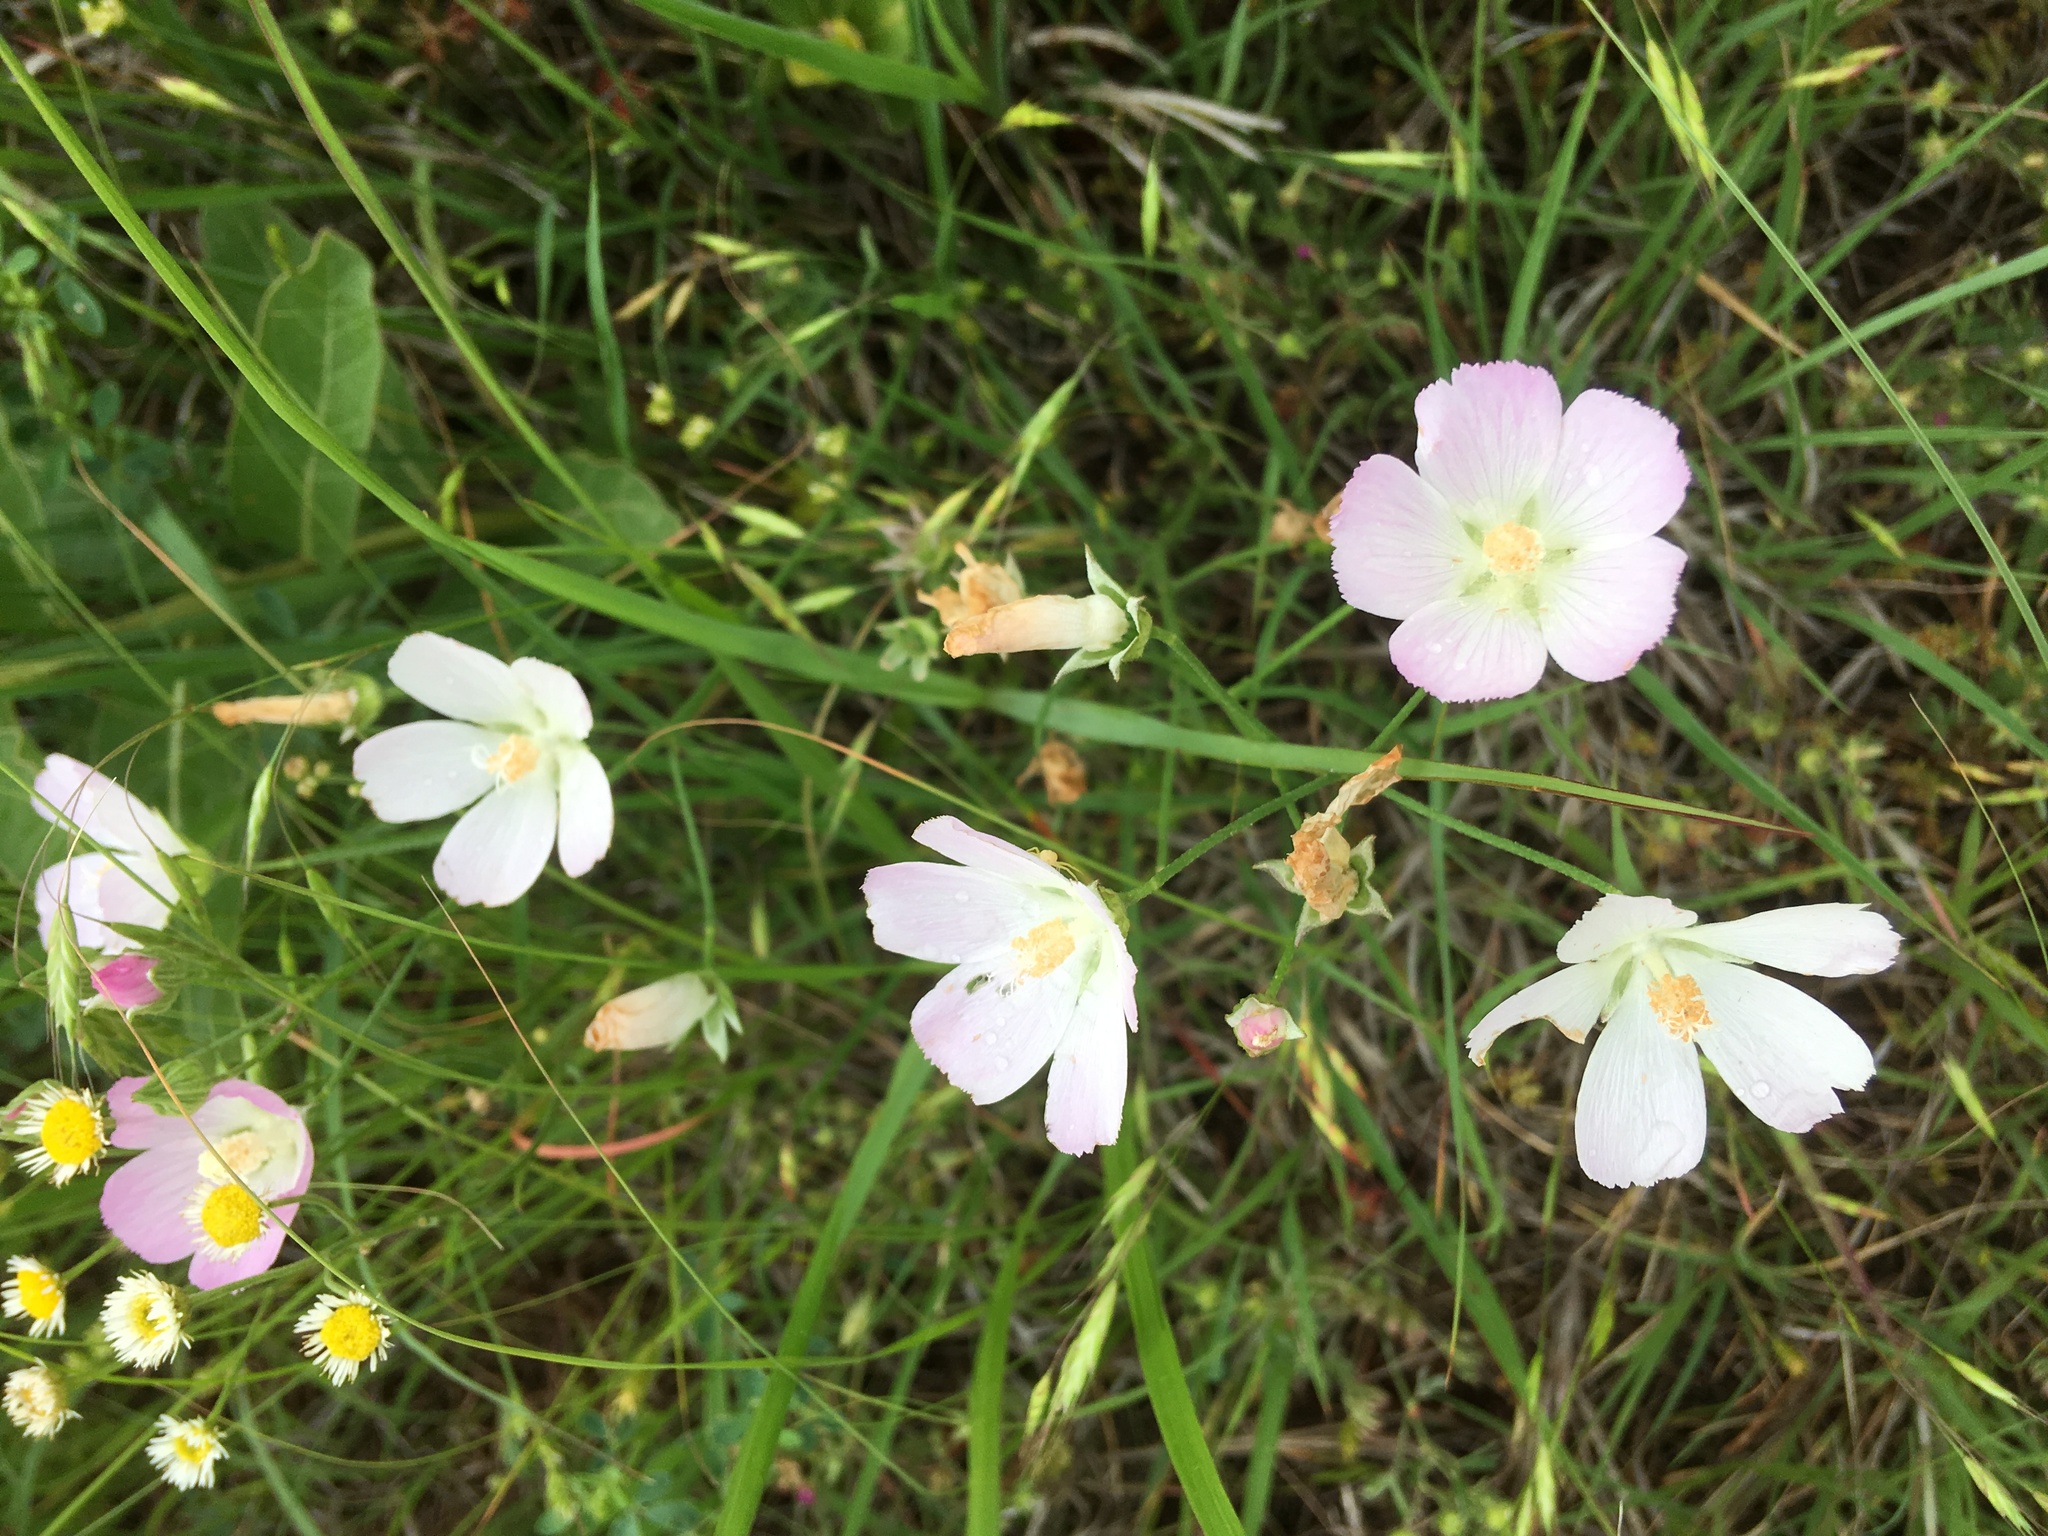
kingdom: Plantae
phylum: Tracheophyta
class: Magnoliopsida
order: Malvales
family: Malvaceae
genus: Callirhoe
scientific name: Callirhoe alcaeoides
